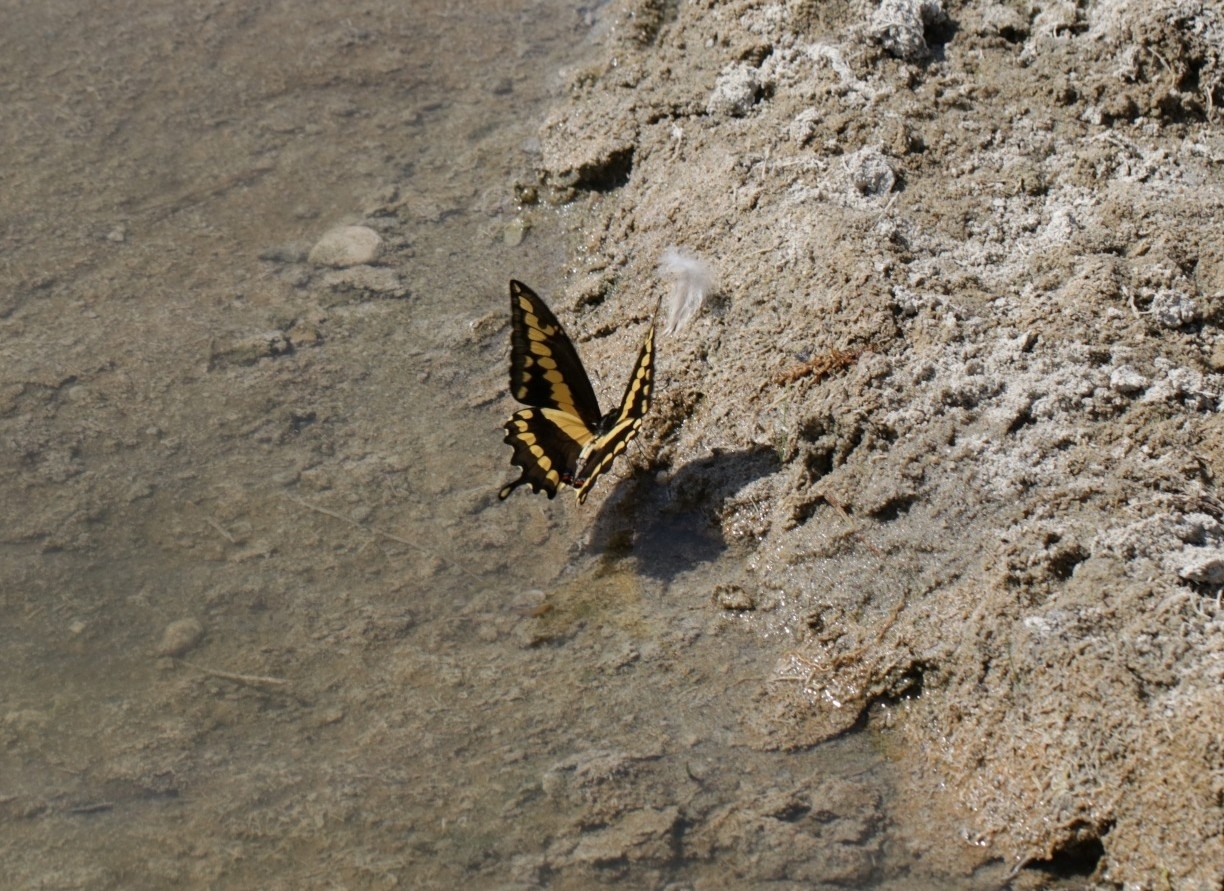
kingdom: Animalia
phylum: Arthropoda
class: Insecta
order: Lepidoptera
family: Papilionidae
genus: Papilio
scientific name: Papilio rumiko
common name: Western giant swallowtail
